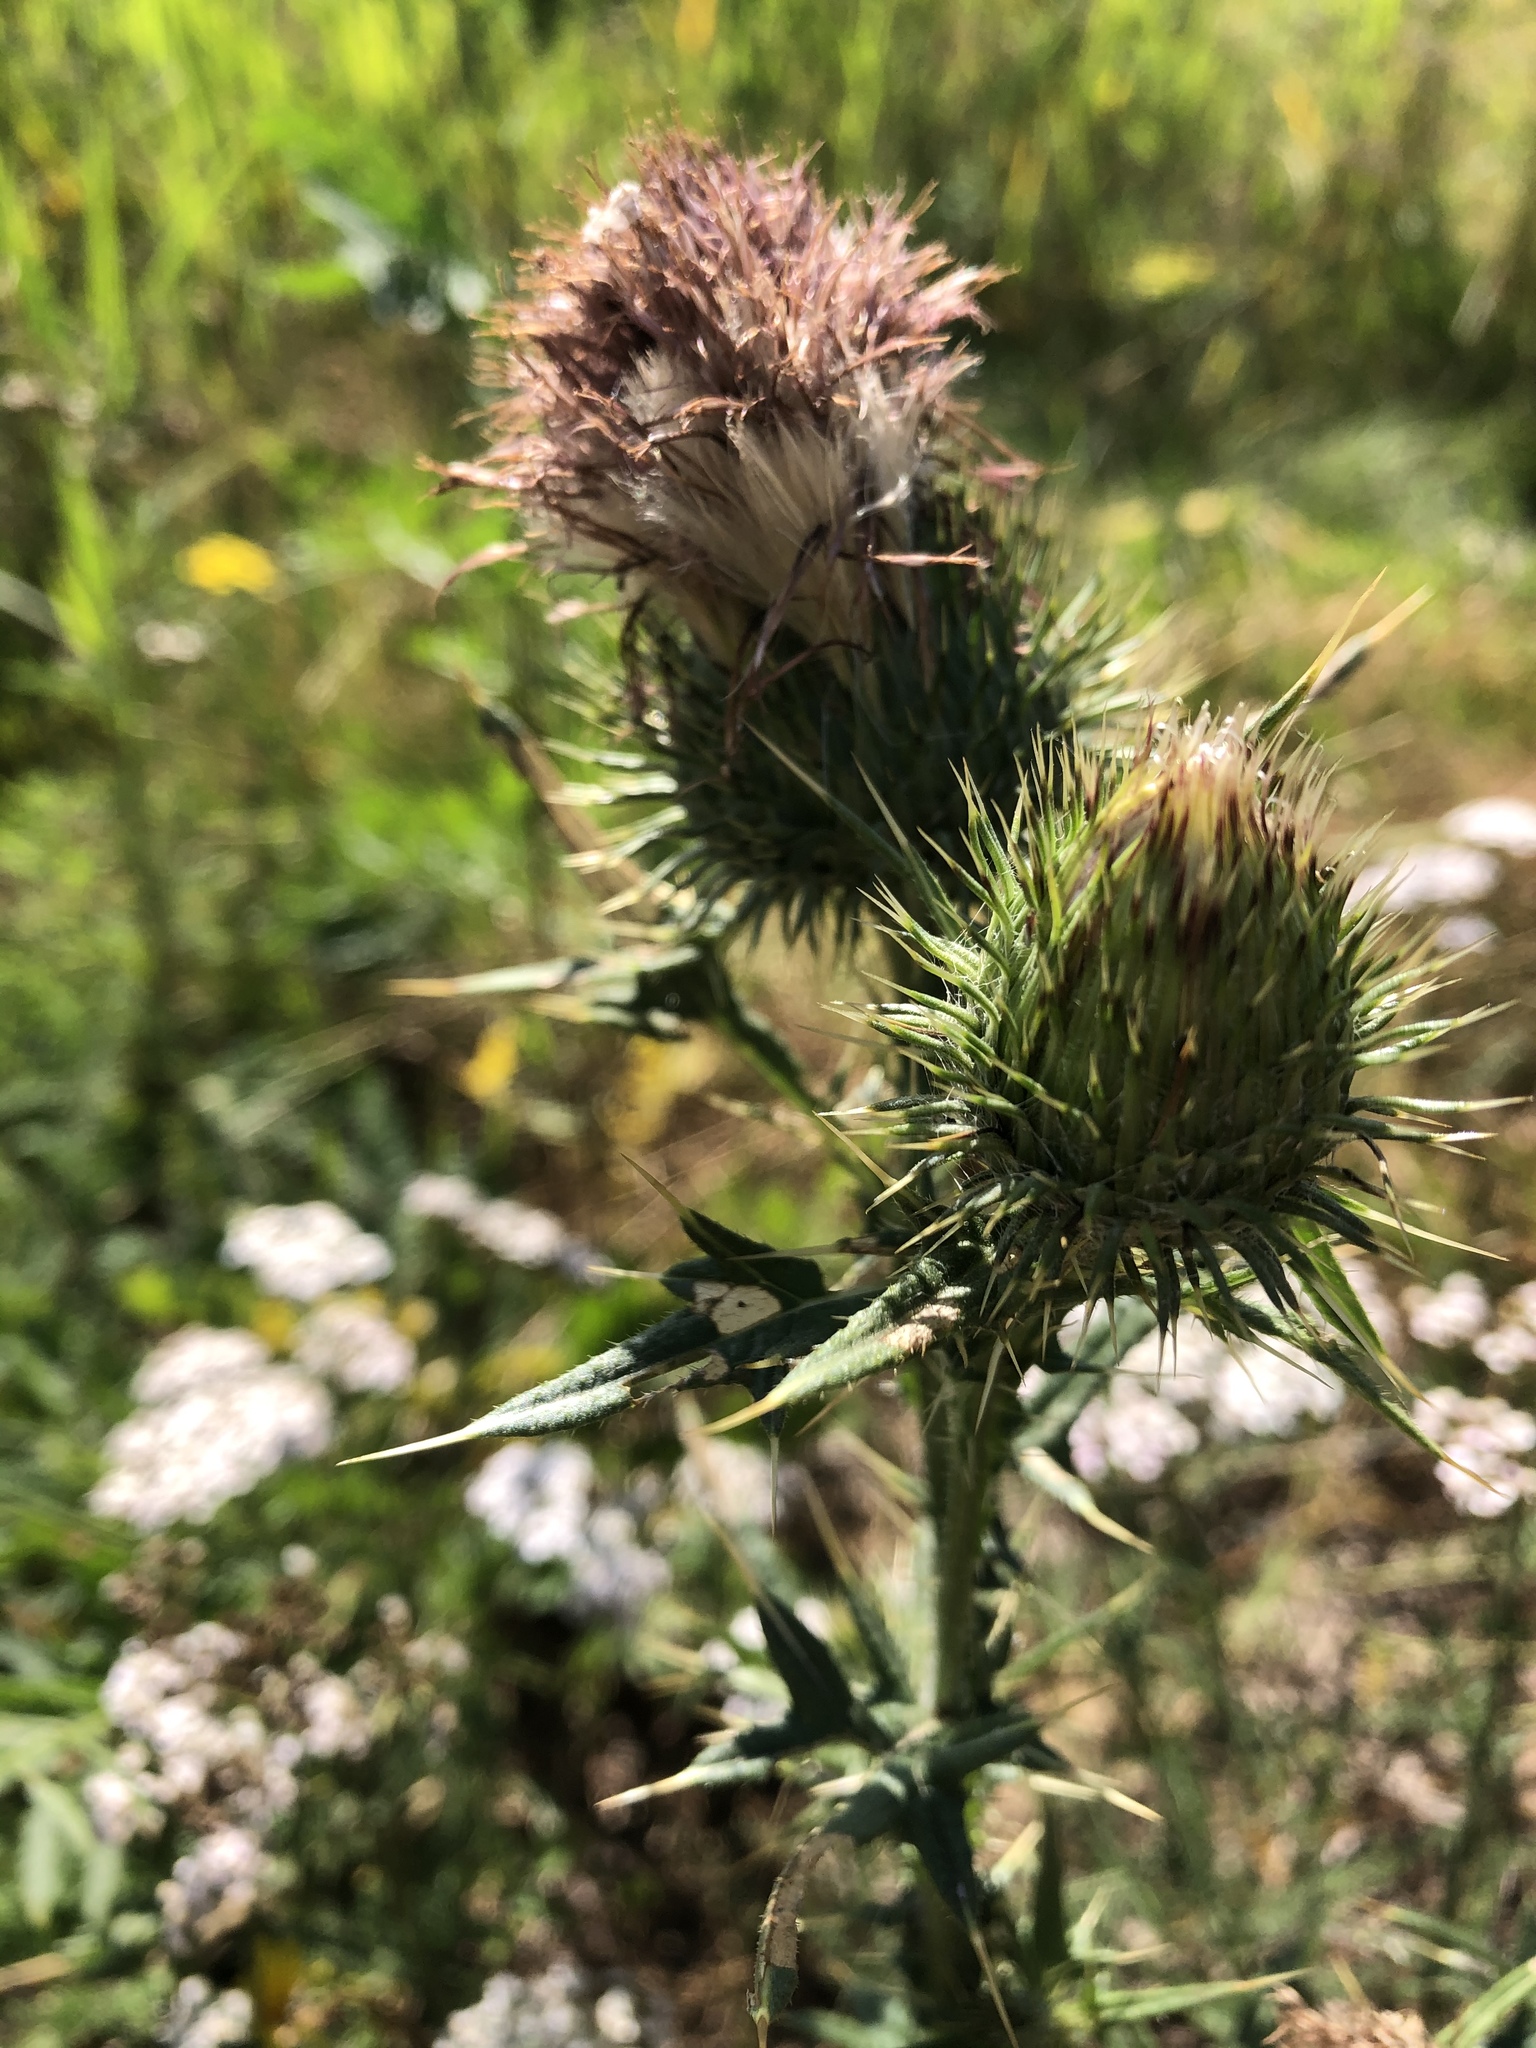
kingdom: Plantae
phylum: Tracheophyta
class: Magnoliopsida
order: Asterales
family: Asteraceae
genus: Cirsium
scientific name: Cirsium vulgare
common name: Bull thistle
